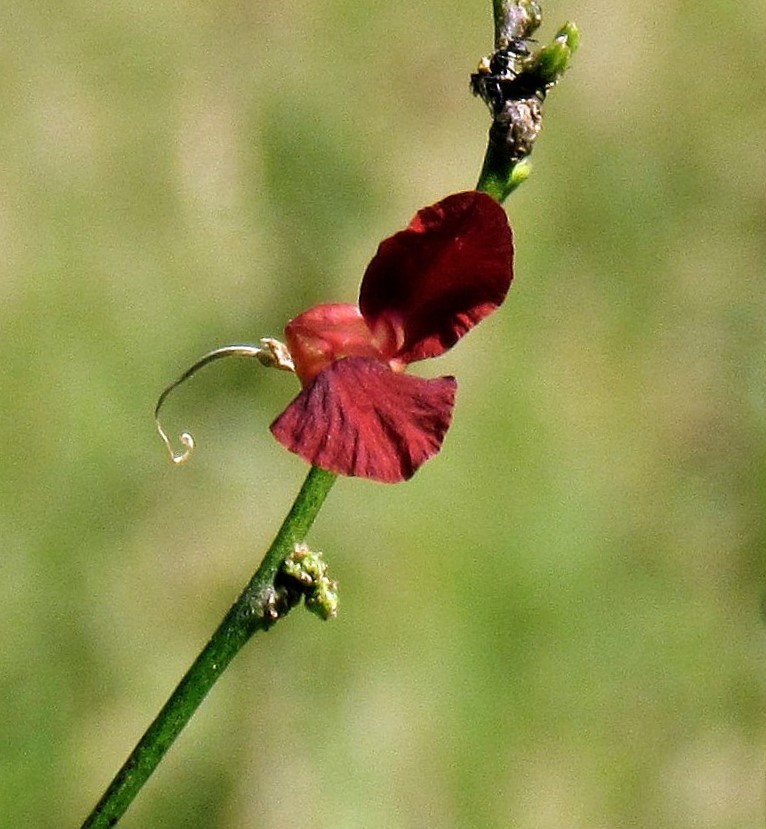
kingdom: Plantae
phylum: Tracheophyta
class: Magnoliopsida
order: Fabales
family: Fabaceae
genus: Macroptilium
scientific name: Macroptilium lathyroides
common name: Wild bushbean
